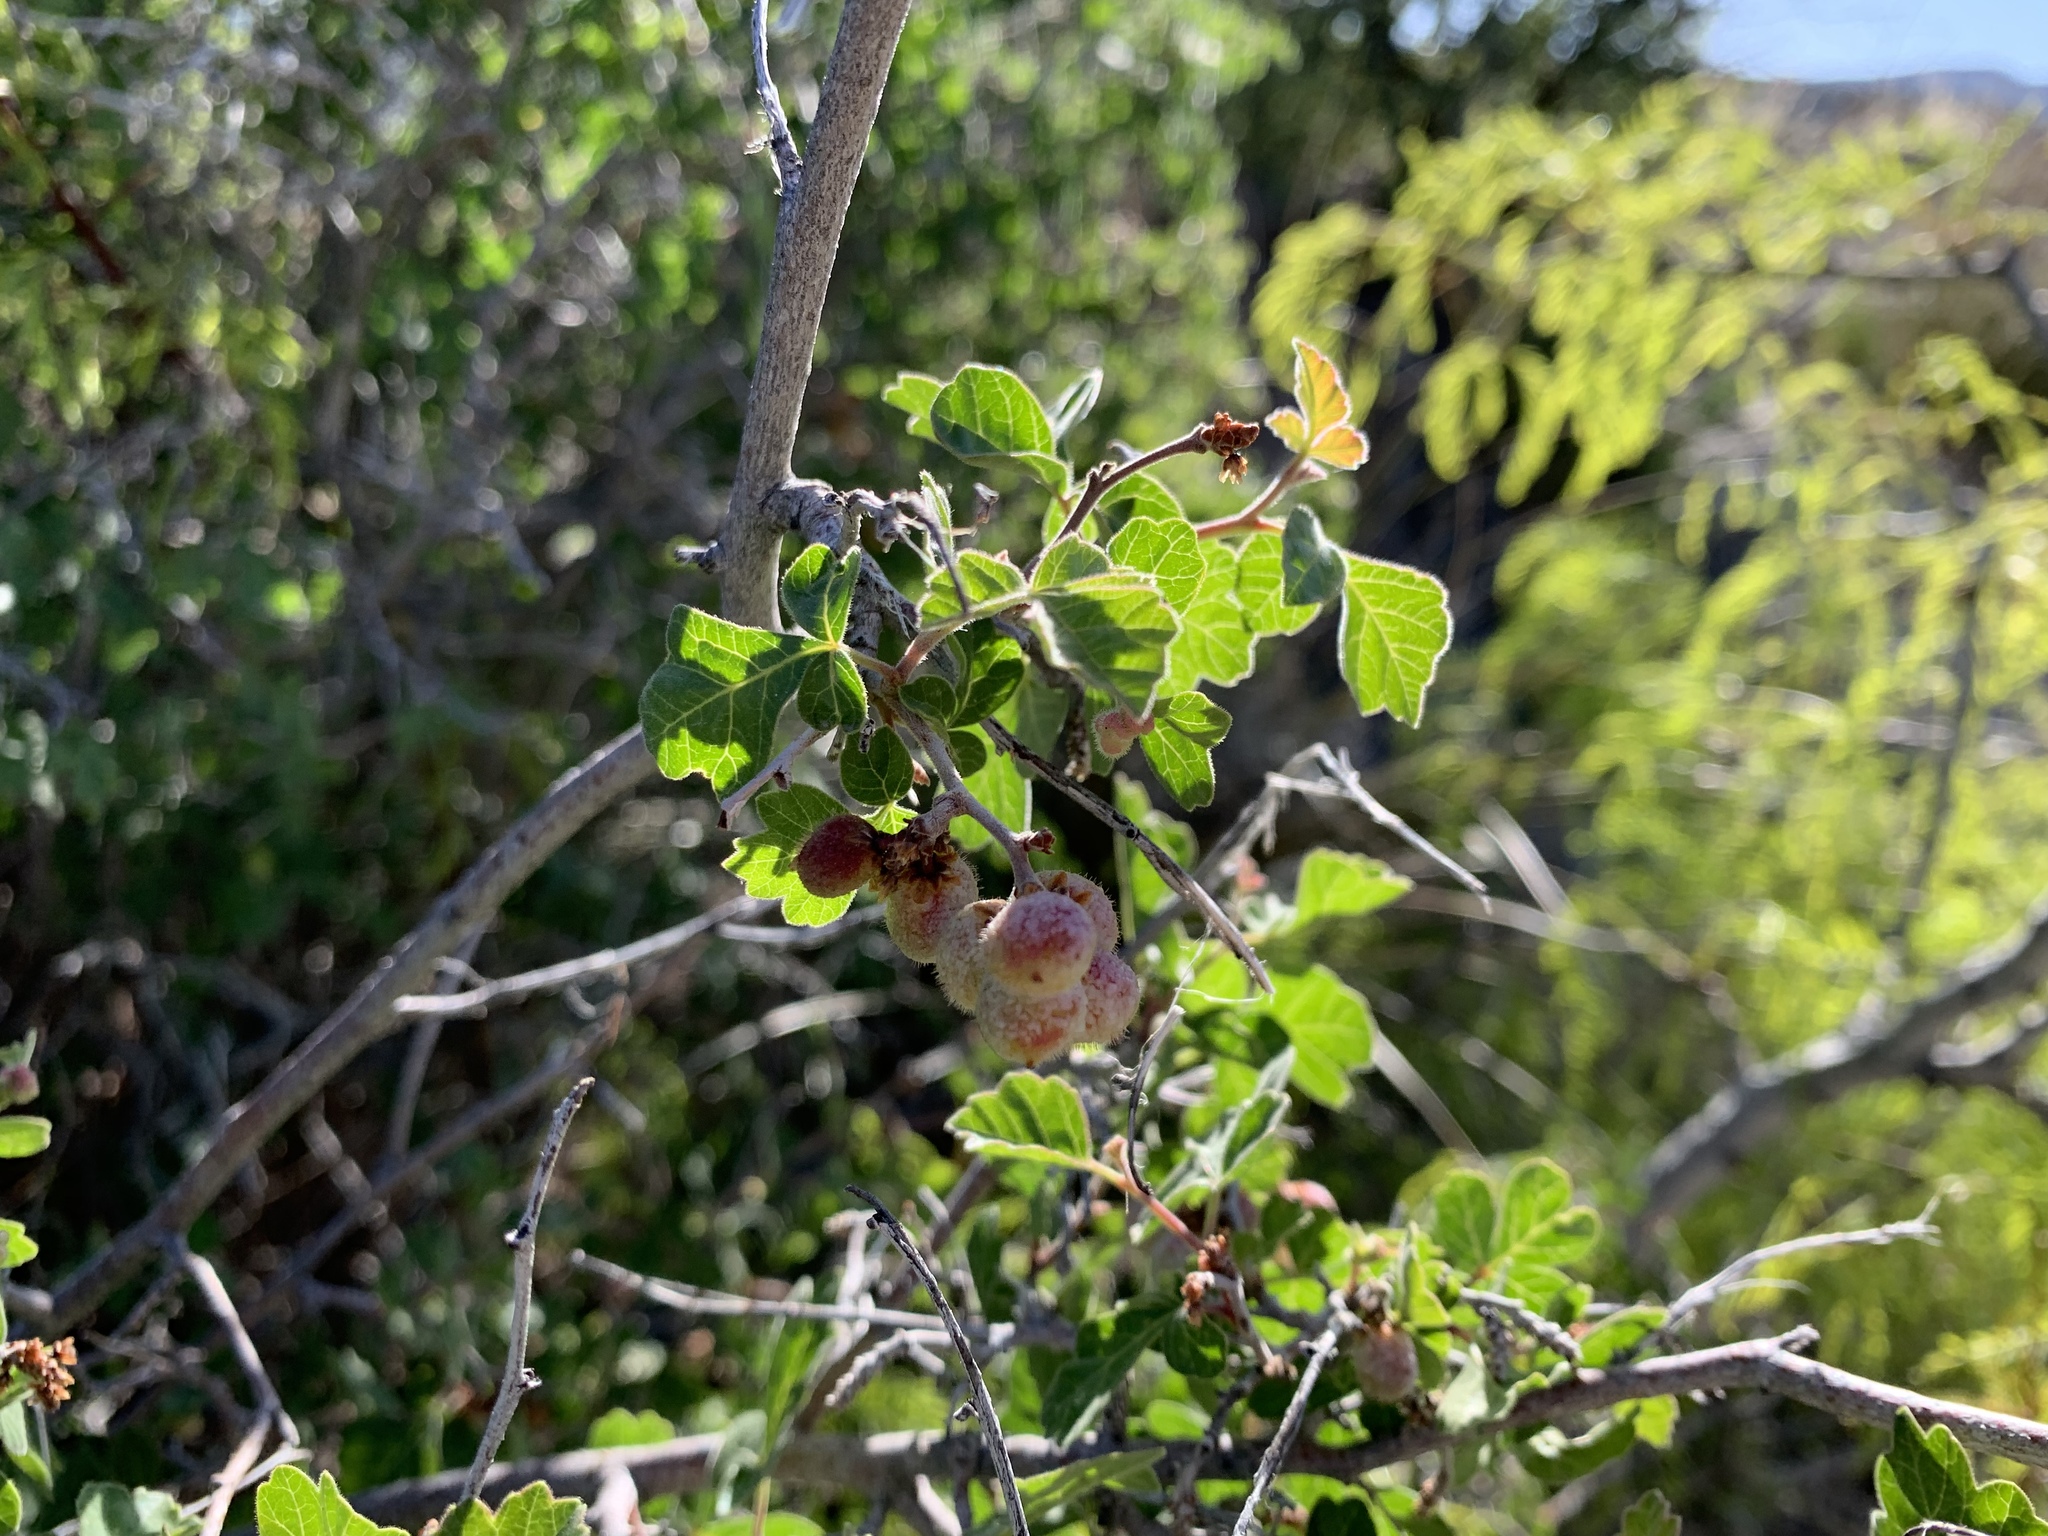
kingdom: Plantae
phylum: Tracheophyta
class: Magnoliopsida
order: Sapindales
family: Anacardiaceae
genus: Rhus
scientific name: Rhus aromatica
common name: Aromatic sumac
